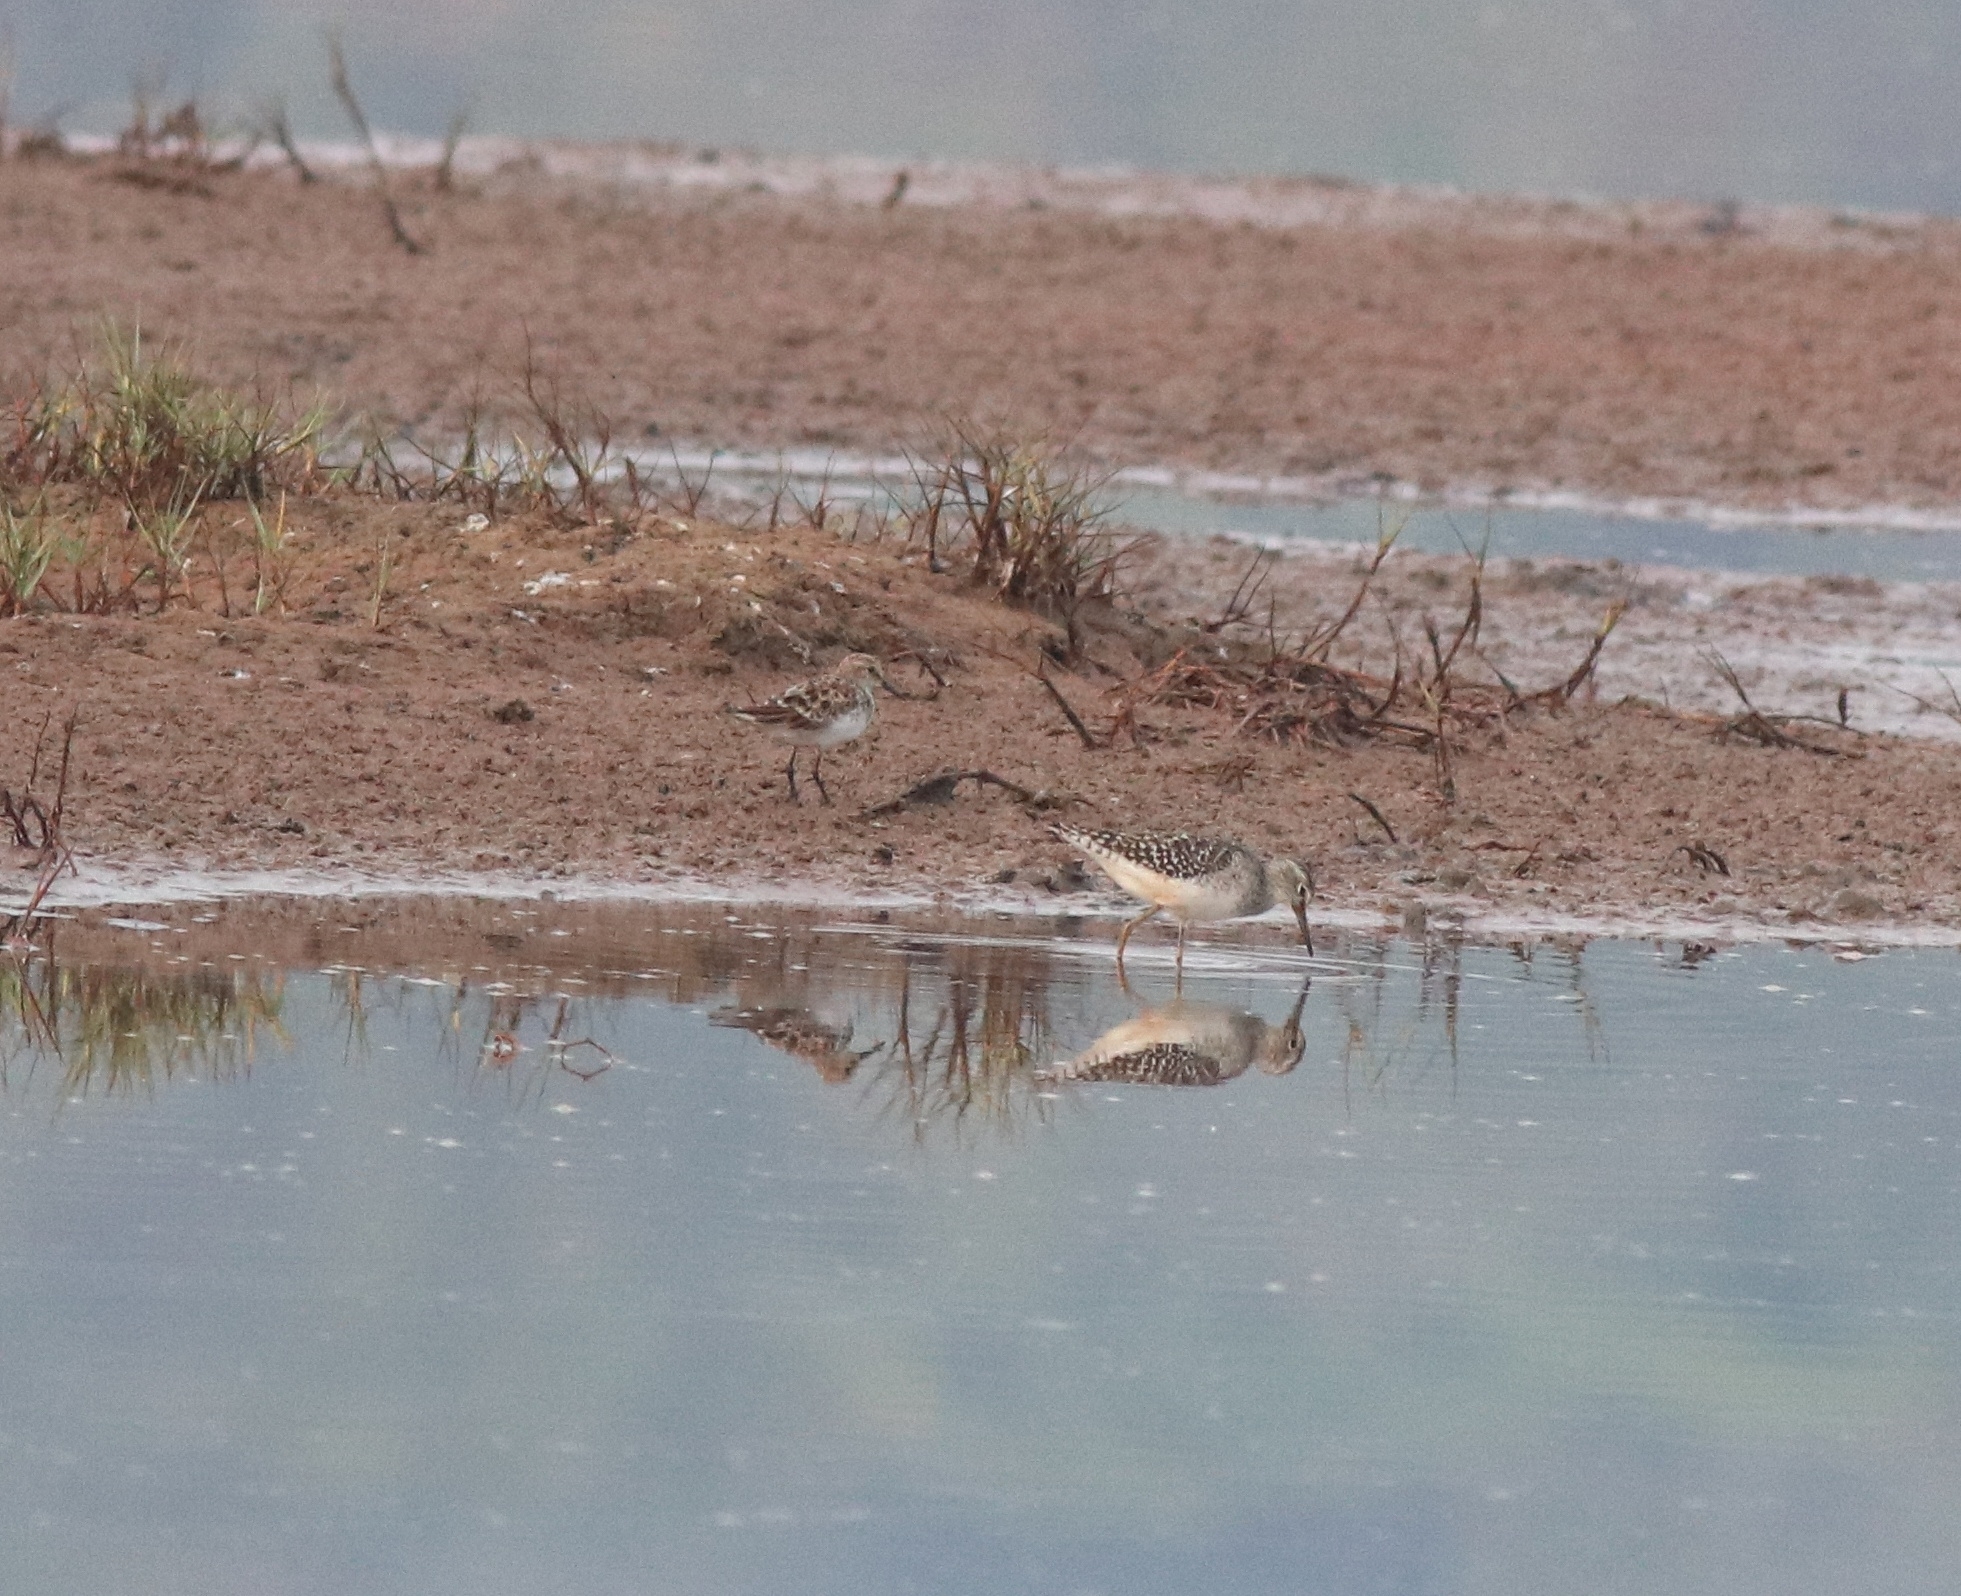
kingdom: Animalia
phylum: Chordata
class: Aves
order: Charadriiformes
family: Scolopacidae
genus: Tringa
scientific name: Tringa glareola
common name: Wood sandpiper
